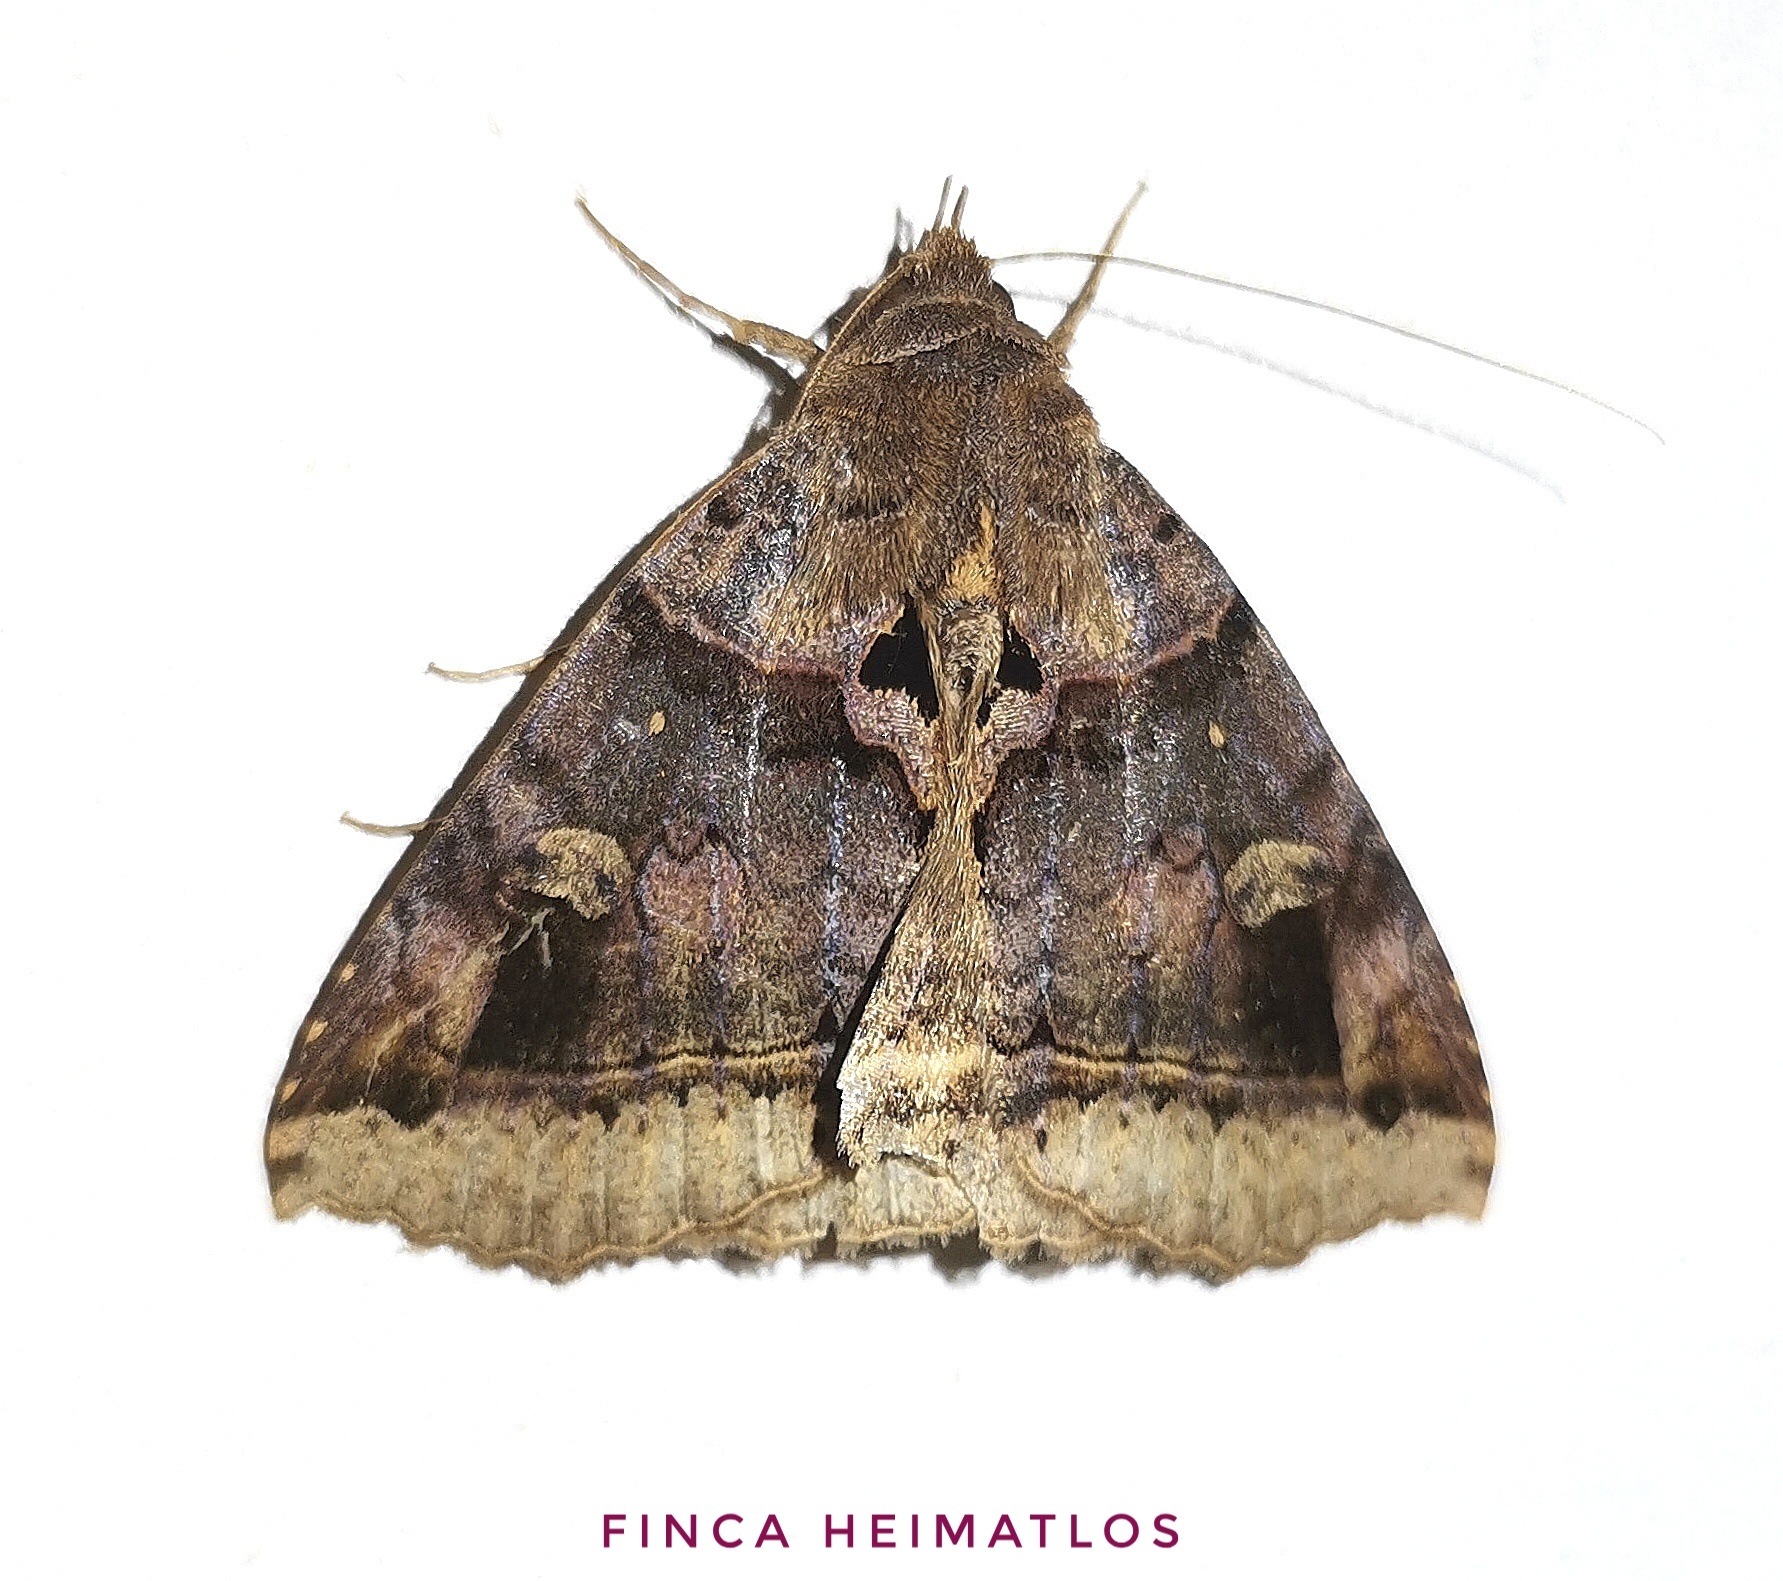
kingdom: Animalia
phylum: Arthropoda
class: Insecta
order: Lepidoptera
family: Erebidae
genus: Celiptera
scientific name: Celiptera levina
